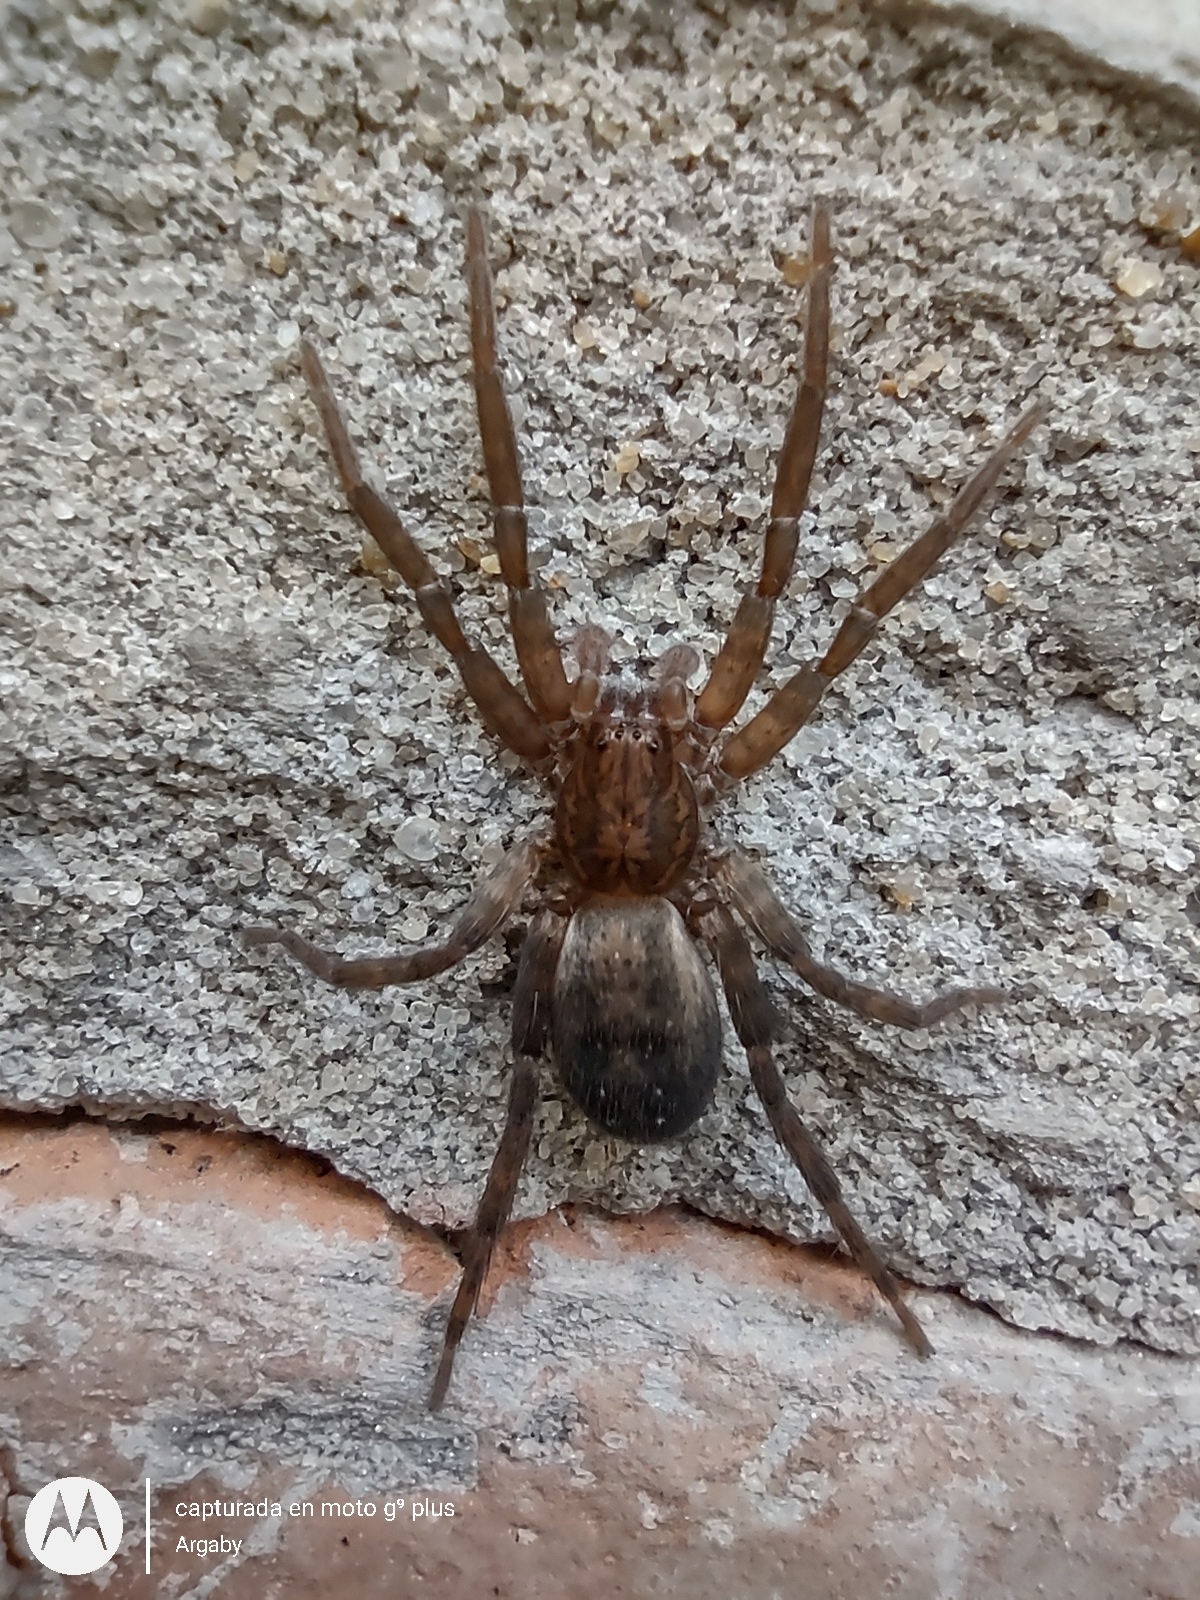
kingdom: Animalia
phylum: Arthropoda
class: Arachnida
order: Araneae
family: Ctenidae
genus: Asthenoctenus
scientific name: Asthenoctenus borellii
